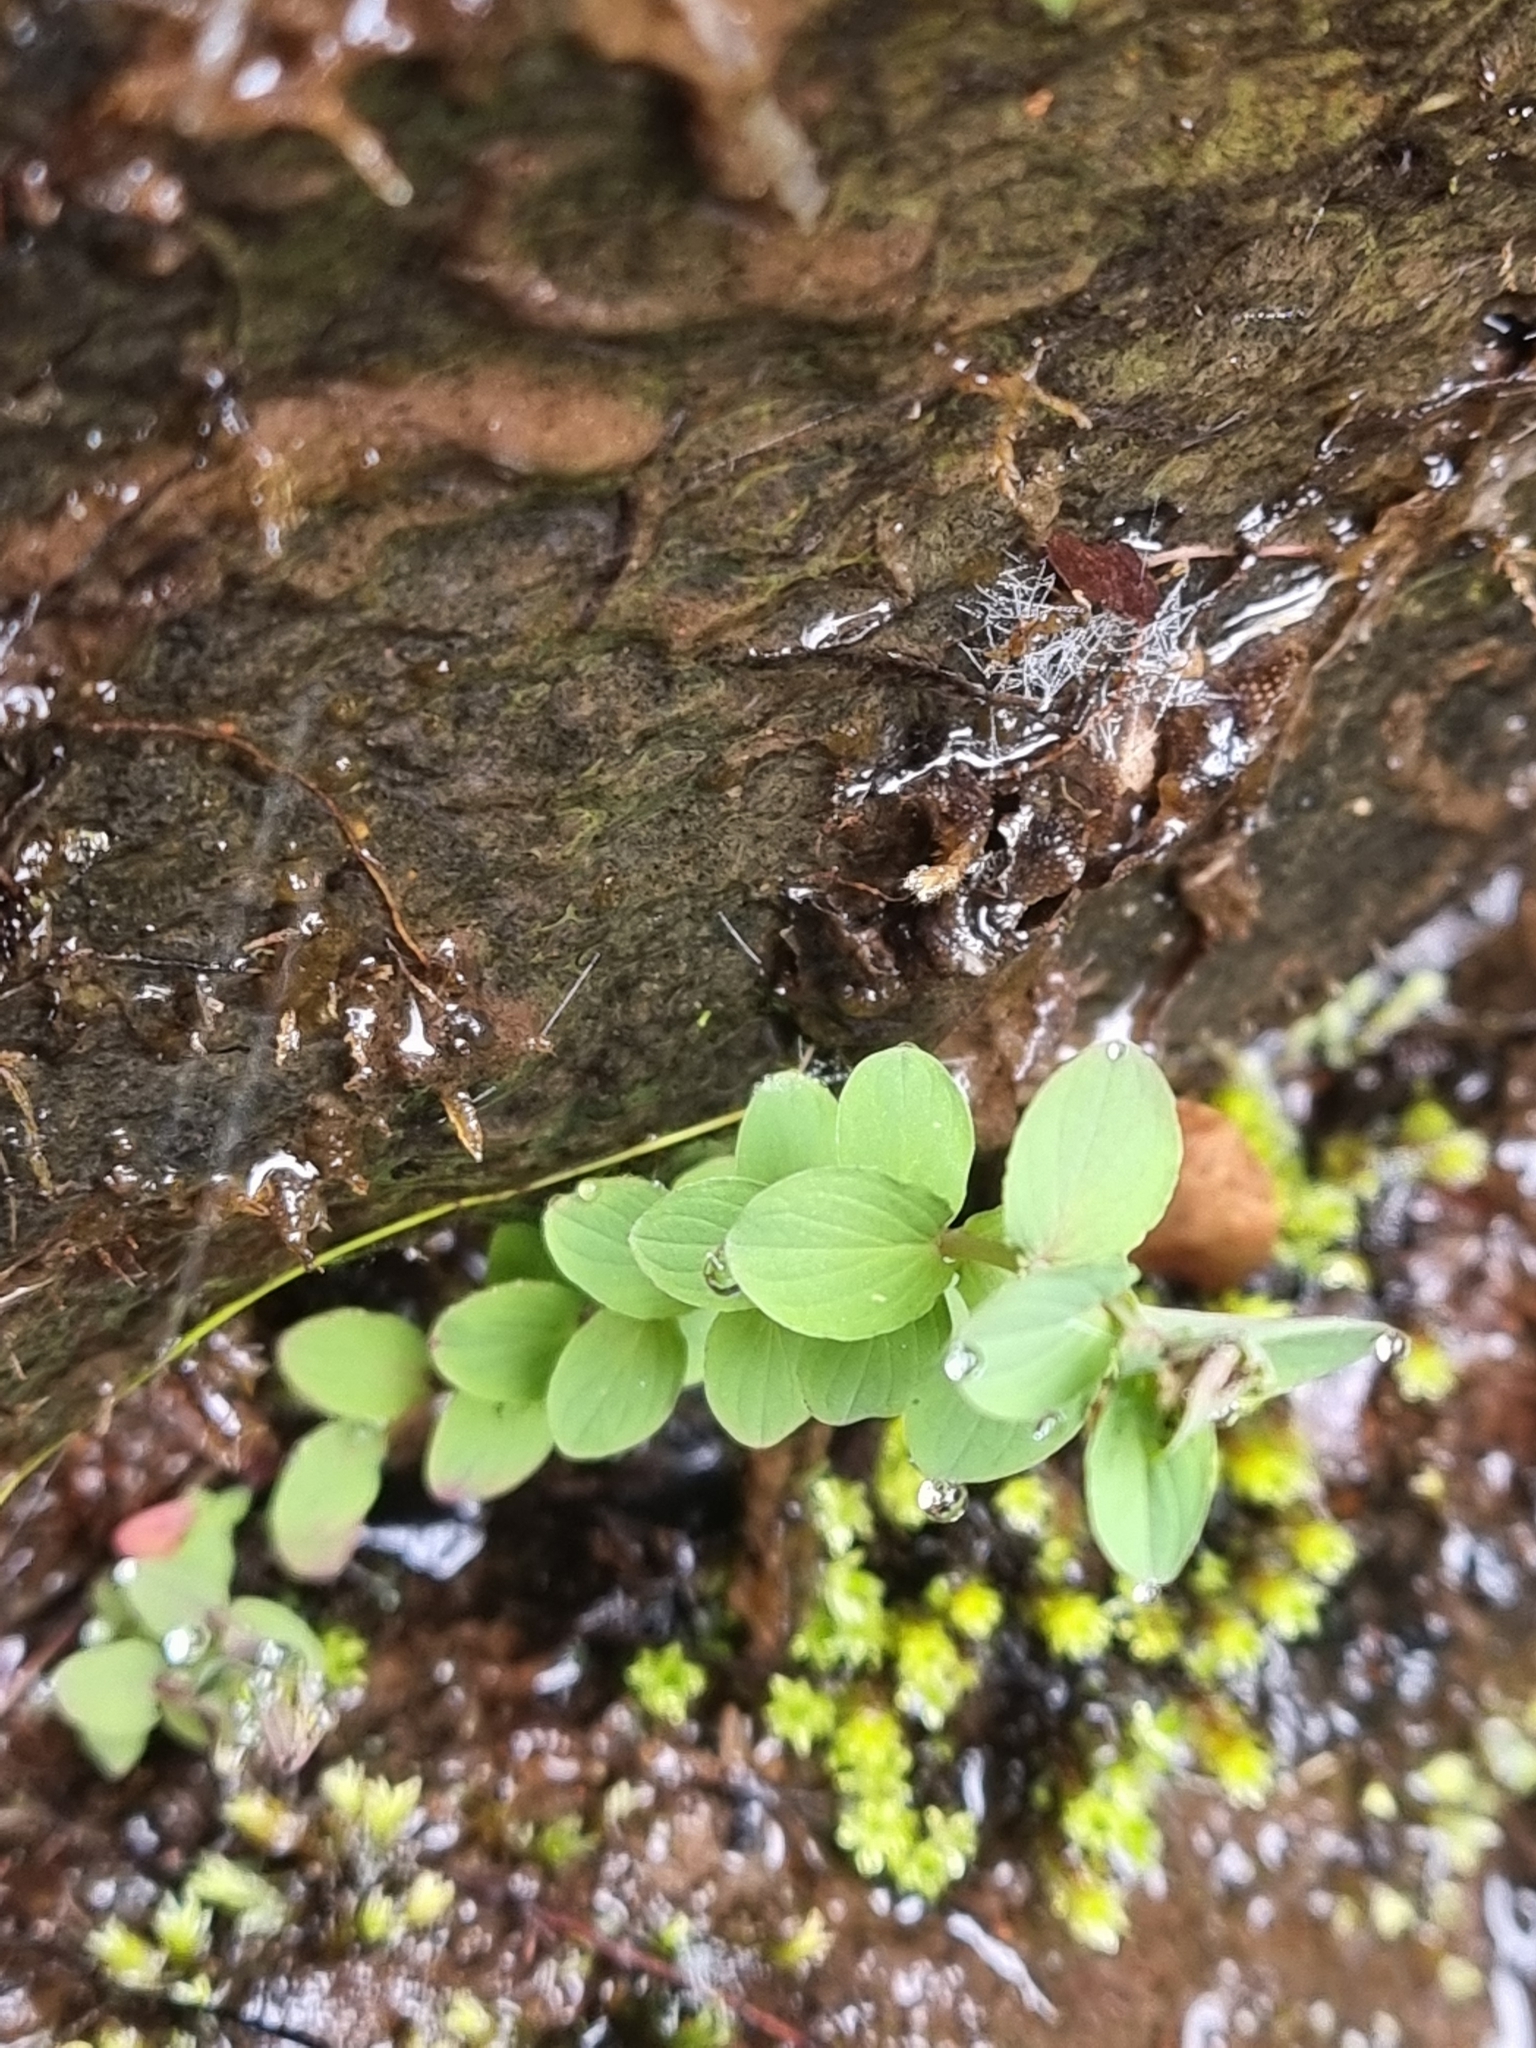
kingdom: Plantae
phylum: Tracheophyta
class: Magnoliopsida
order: Malpighiales
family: Hypericaceae
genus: Hypericum
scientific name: Hypericum undulatum
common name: Wavy st. john's-wort
